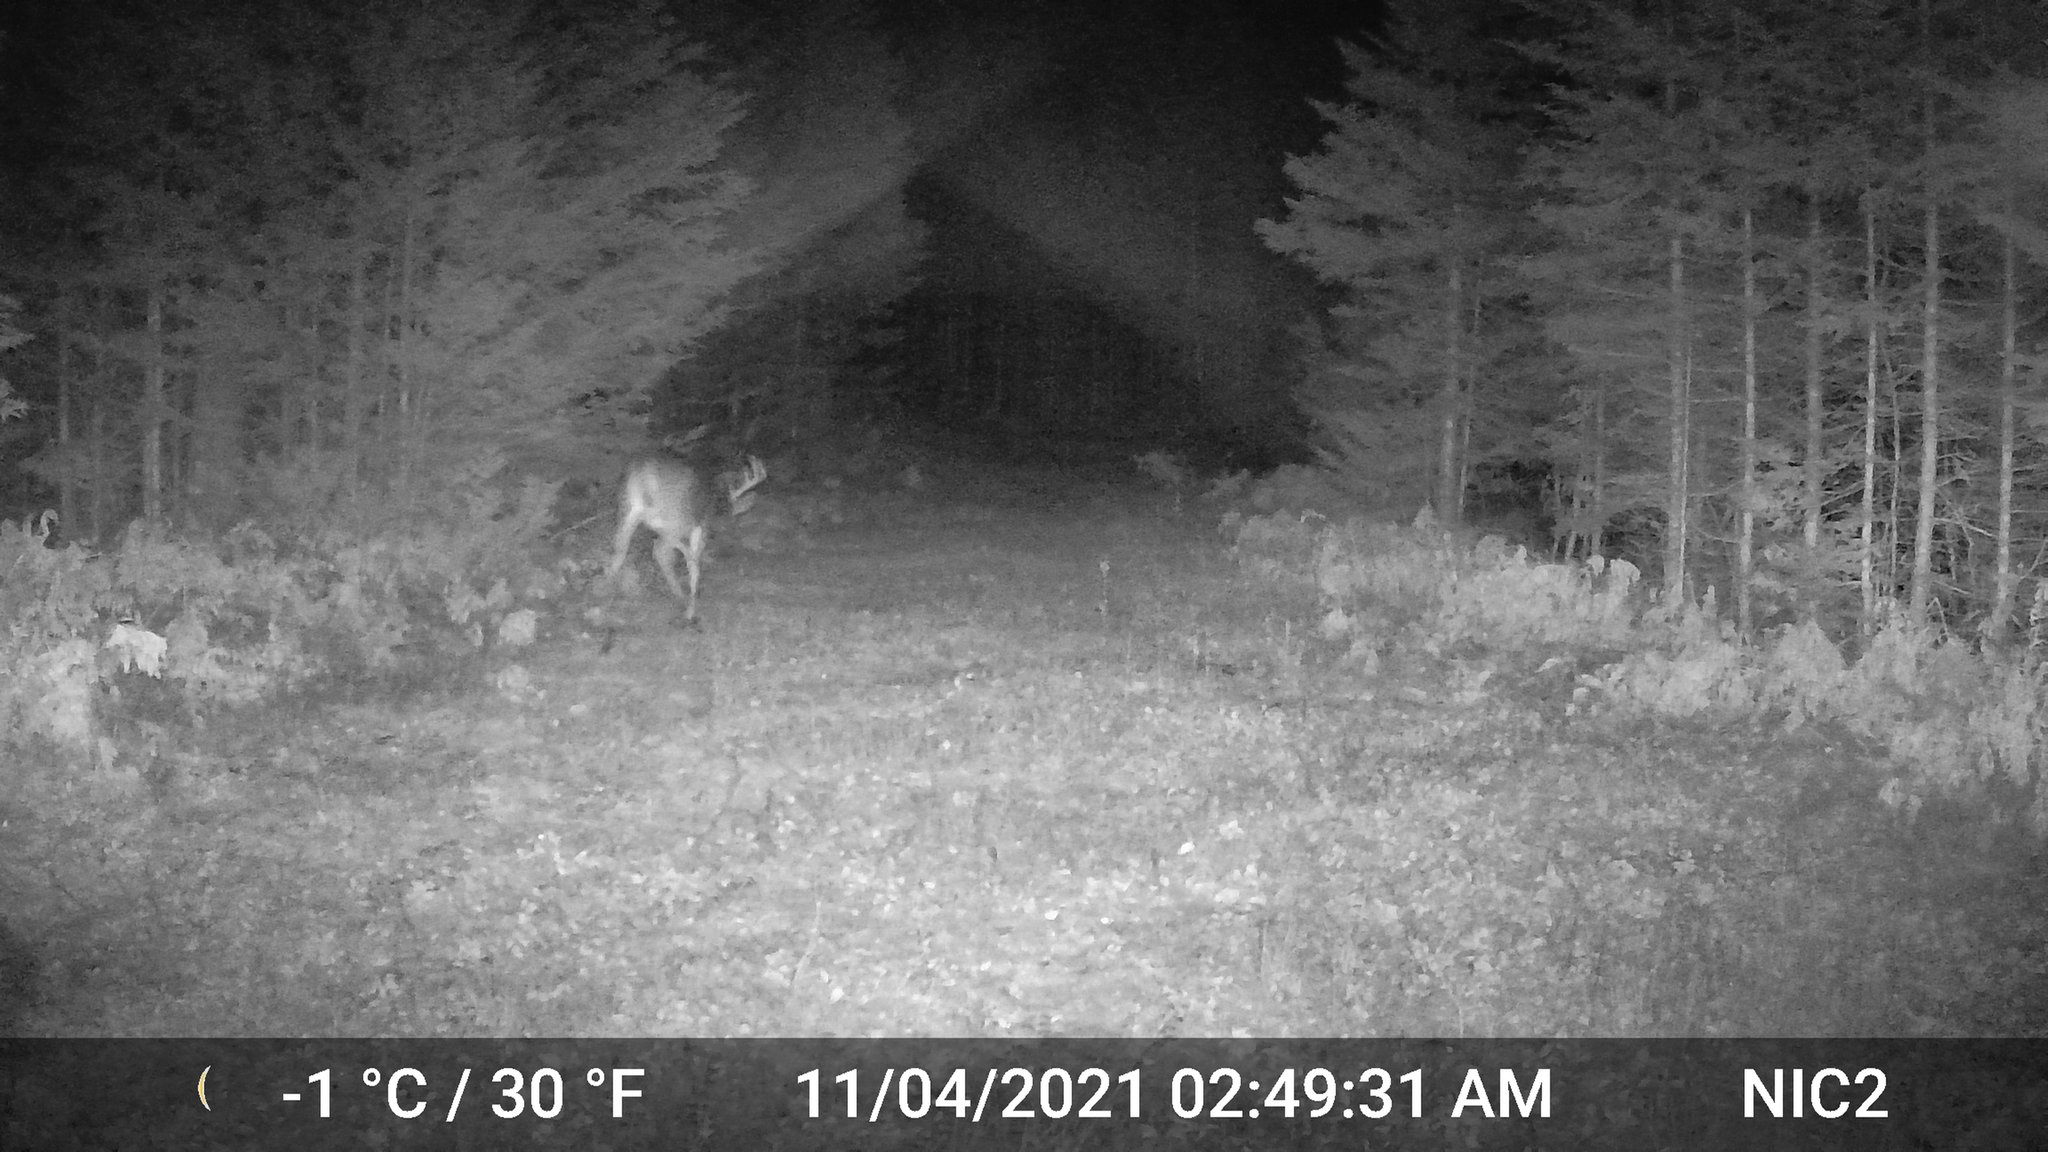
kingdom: Animalia
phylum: Chordata
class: Mammalia
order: Artiodactyla
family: Cervidae
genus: Odocoileus
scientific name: Odocoileus virginianus
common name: White-tailed deer
